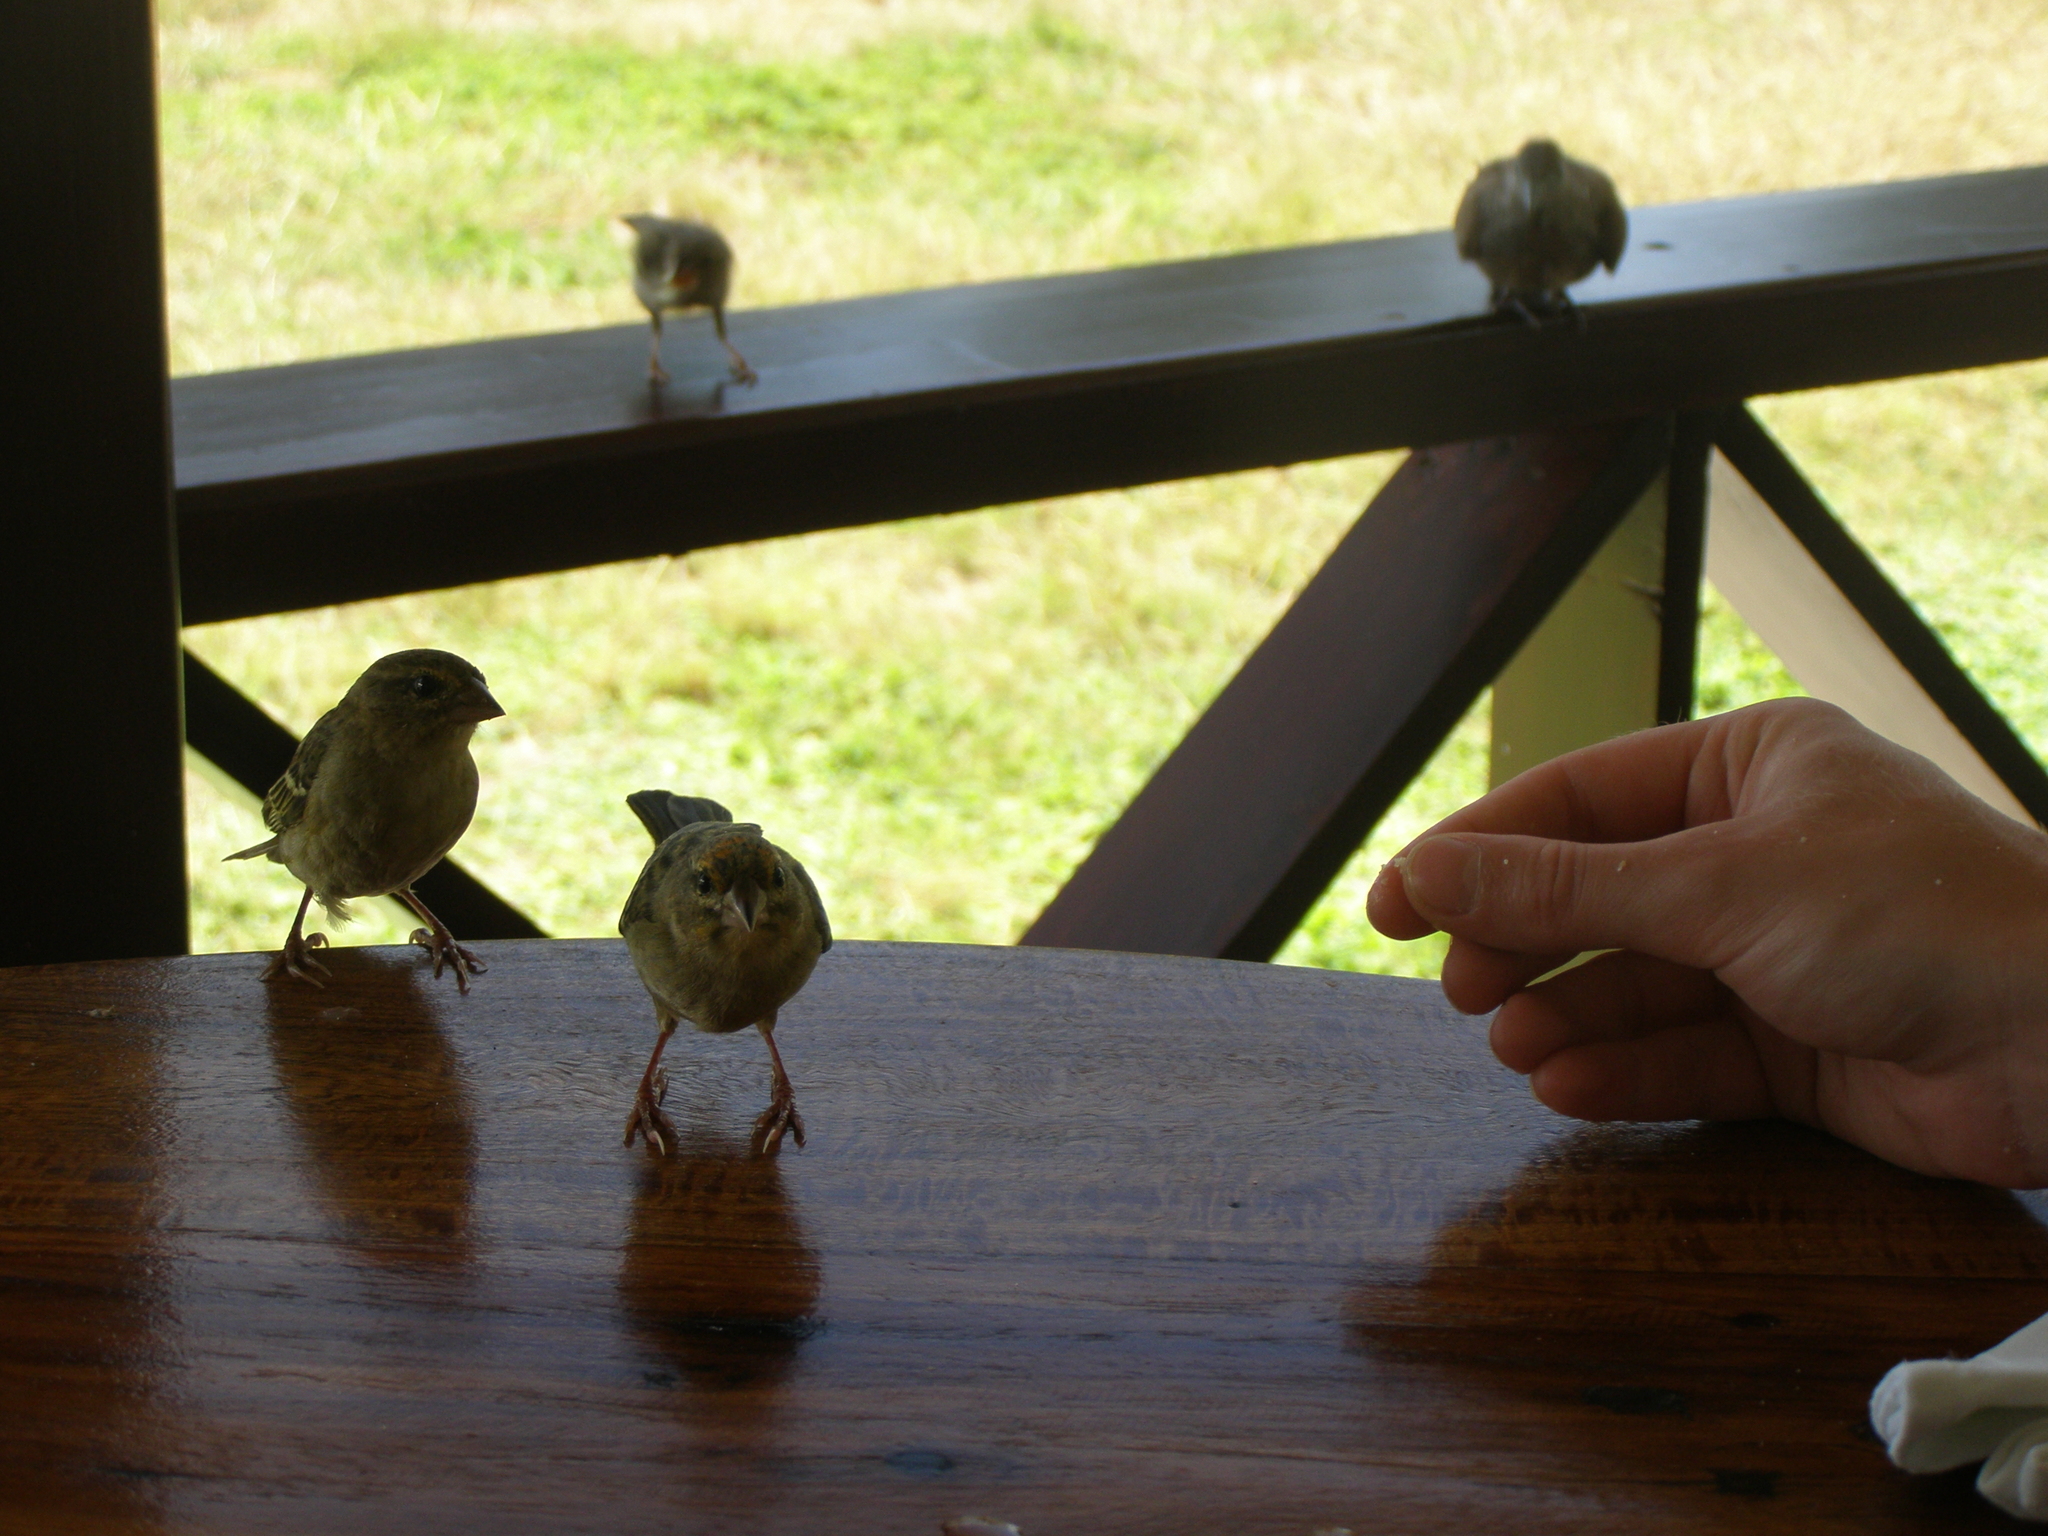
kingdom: Animalia
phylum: Chordata
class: Aves
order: Columbiformes
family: Columbidae
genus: Geopelia
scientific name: Geopelia striata
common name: Zebra dove
